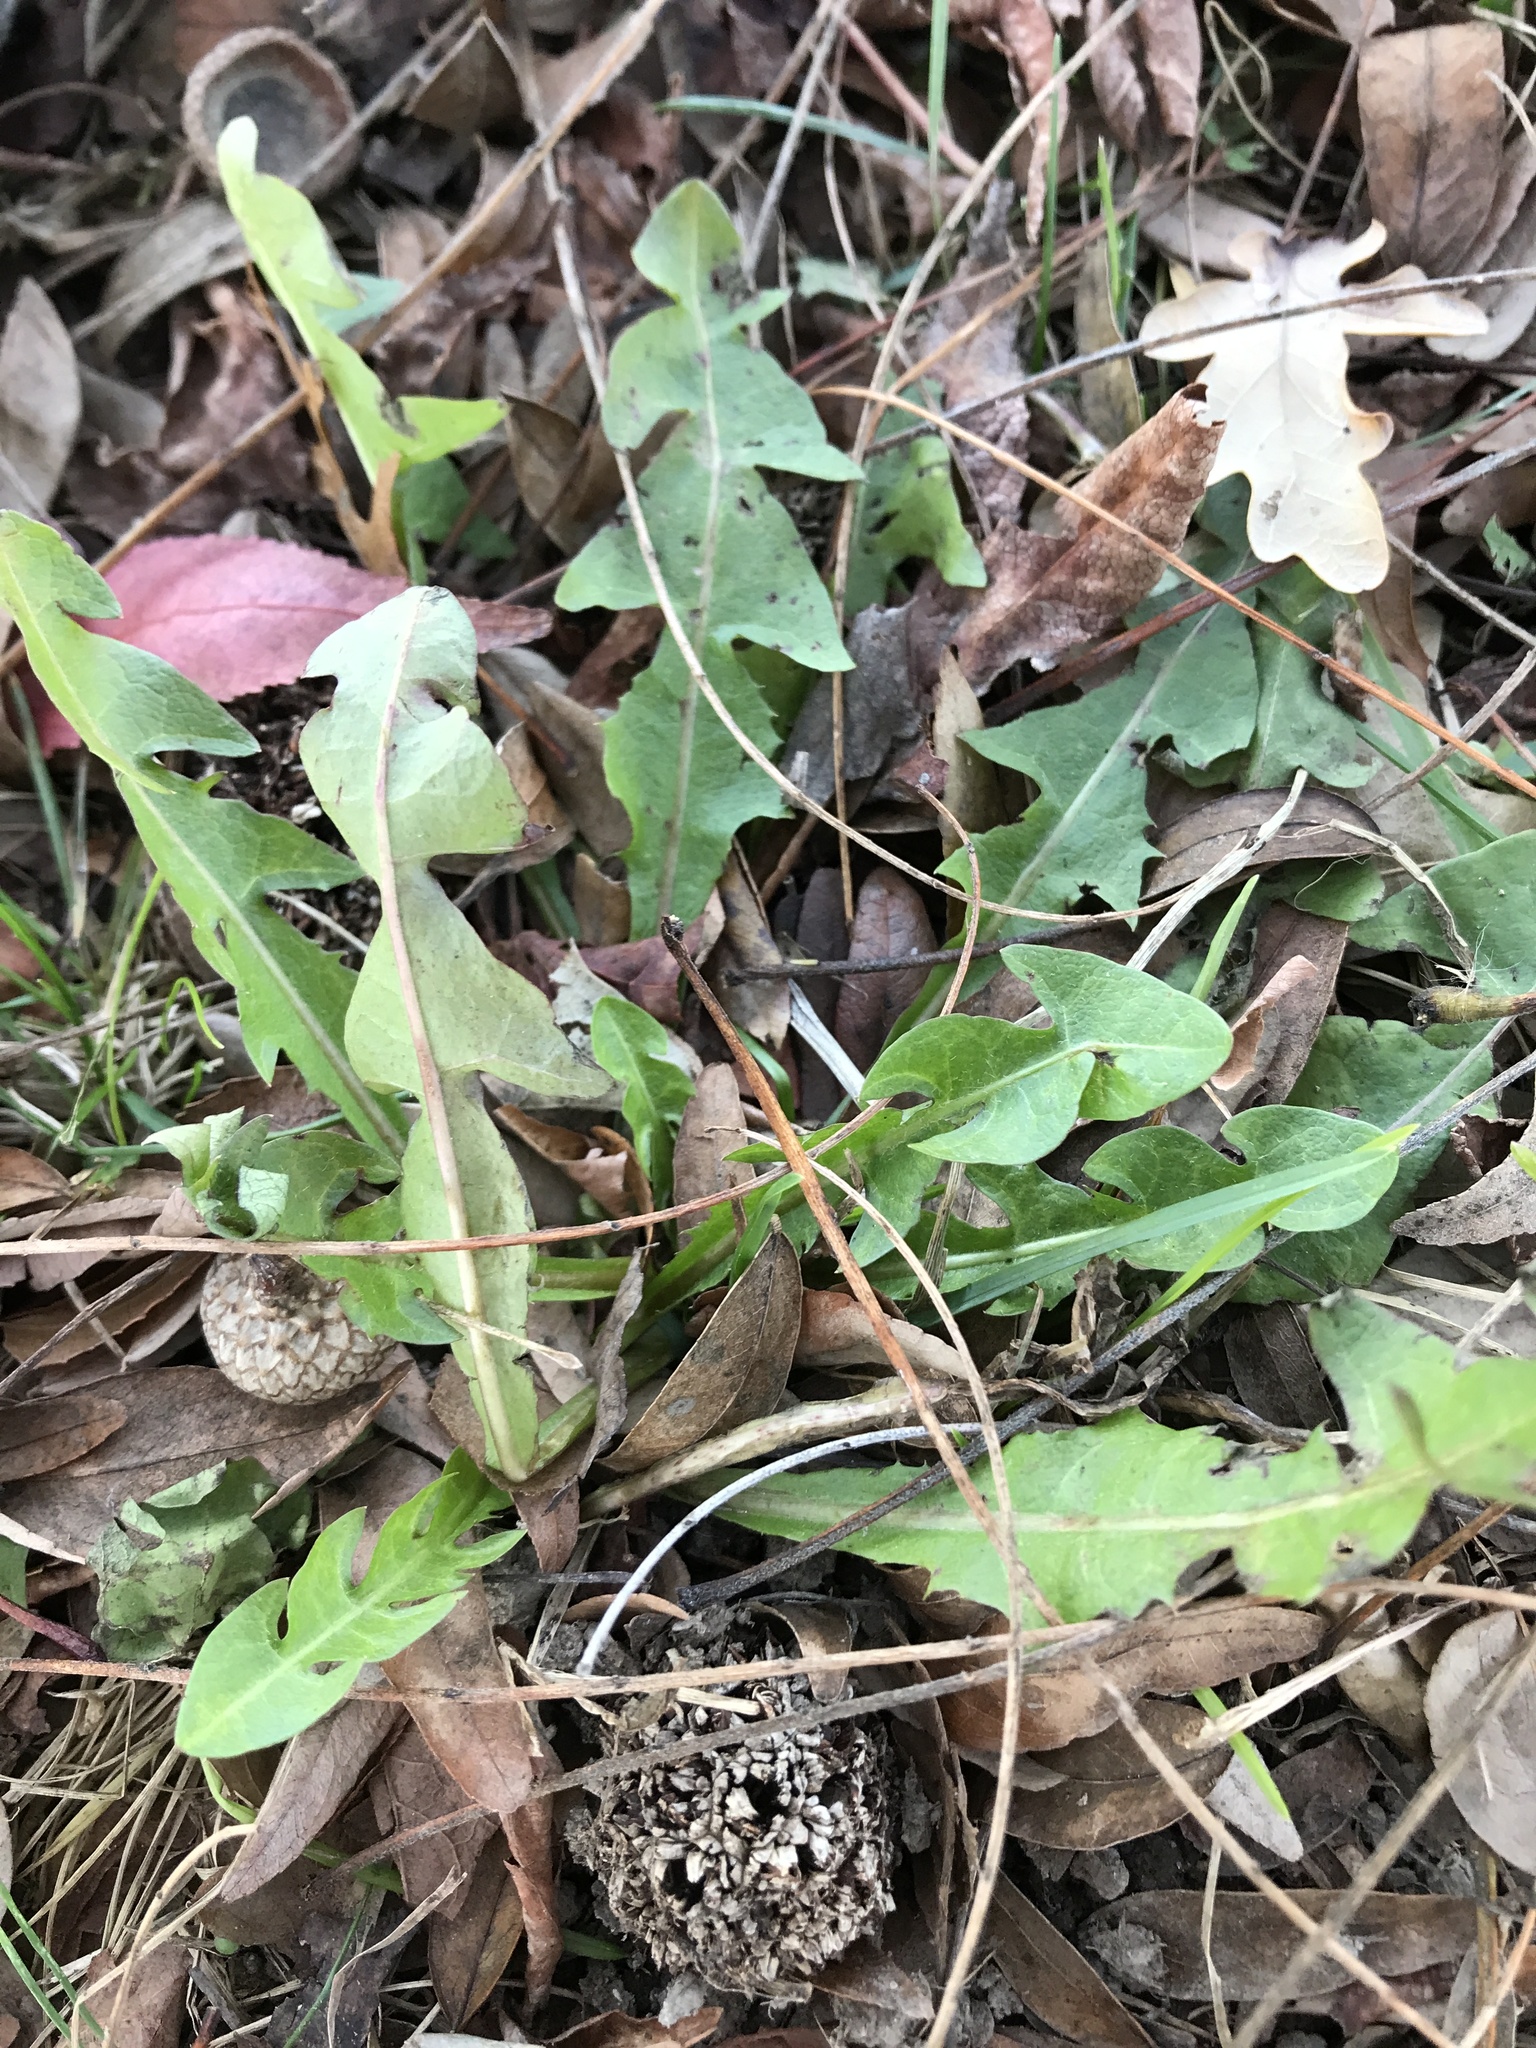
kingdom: Plantae
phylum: Tracheophyta
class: Magnoliopsida
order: Asterales
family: Asteraceae
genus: Taraxacum
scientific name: Taraxacum officinale
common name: Common dandelion
